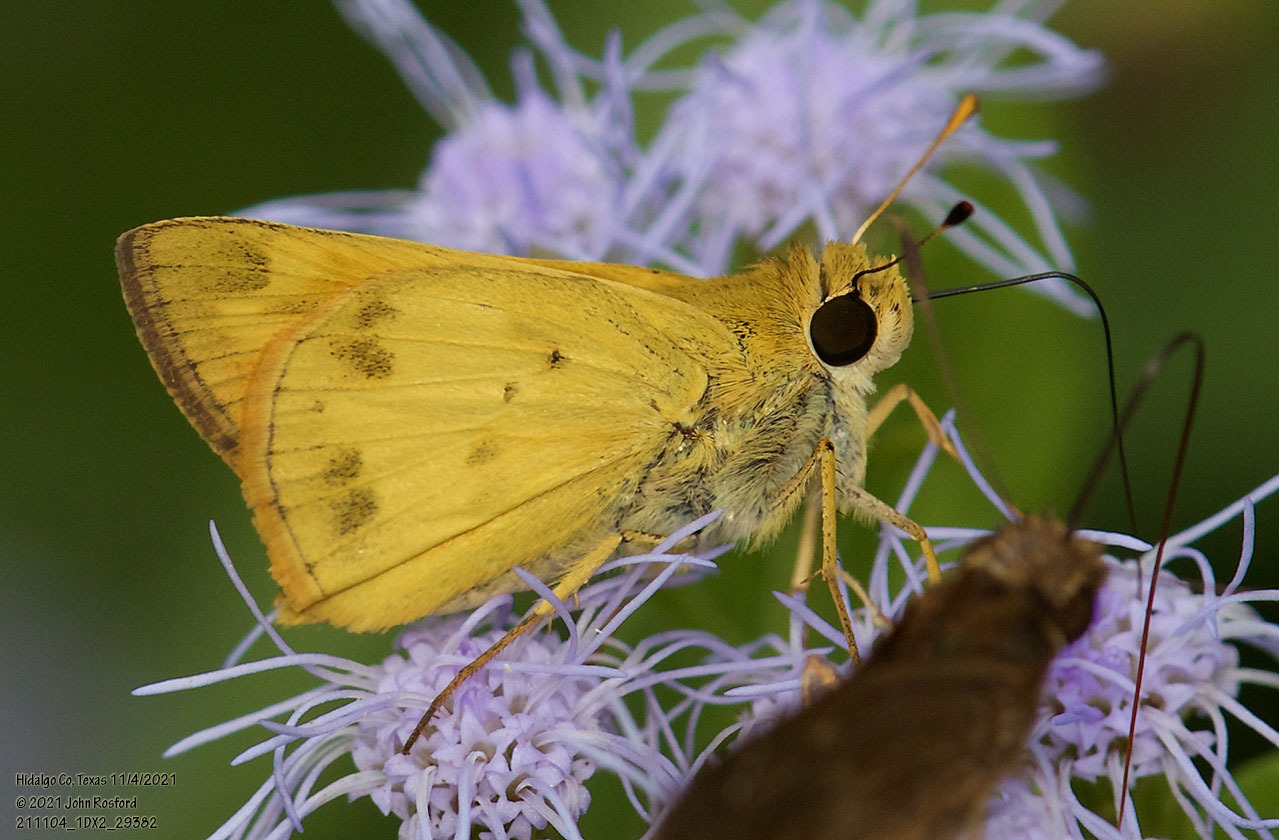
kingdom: Animalia
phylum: Arthropoda
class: Insecta
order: Lepidoptera
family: Hesperiidae
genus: Polites
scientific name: Polites vibex
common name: Whirlabout
